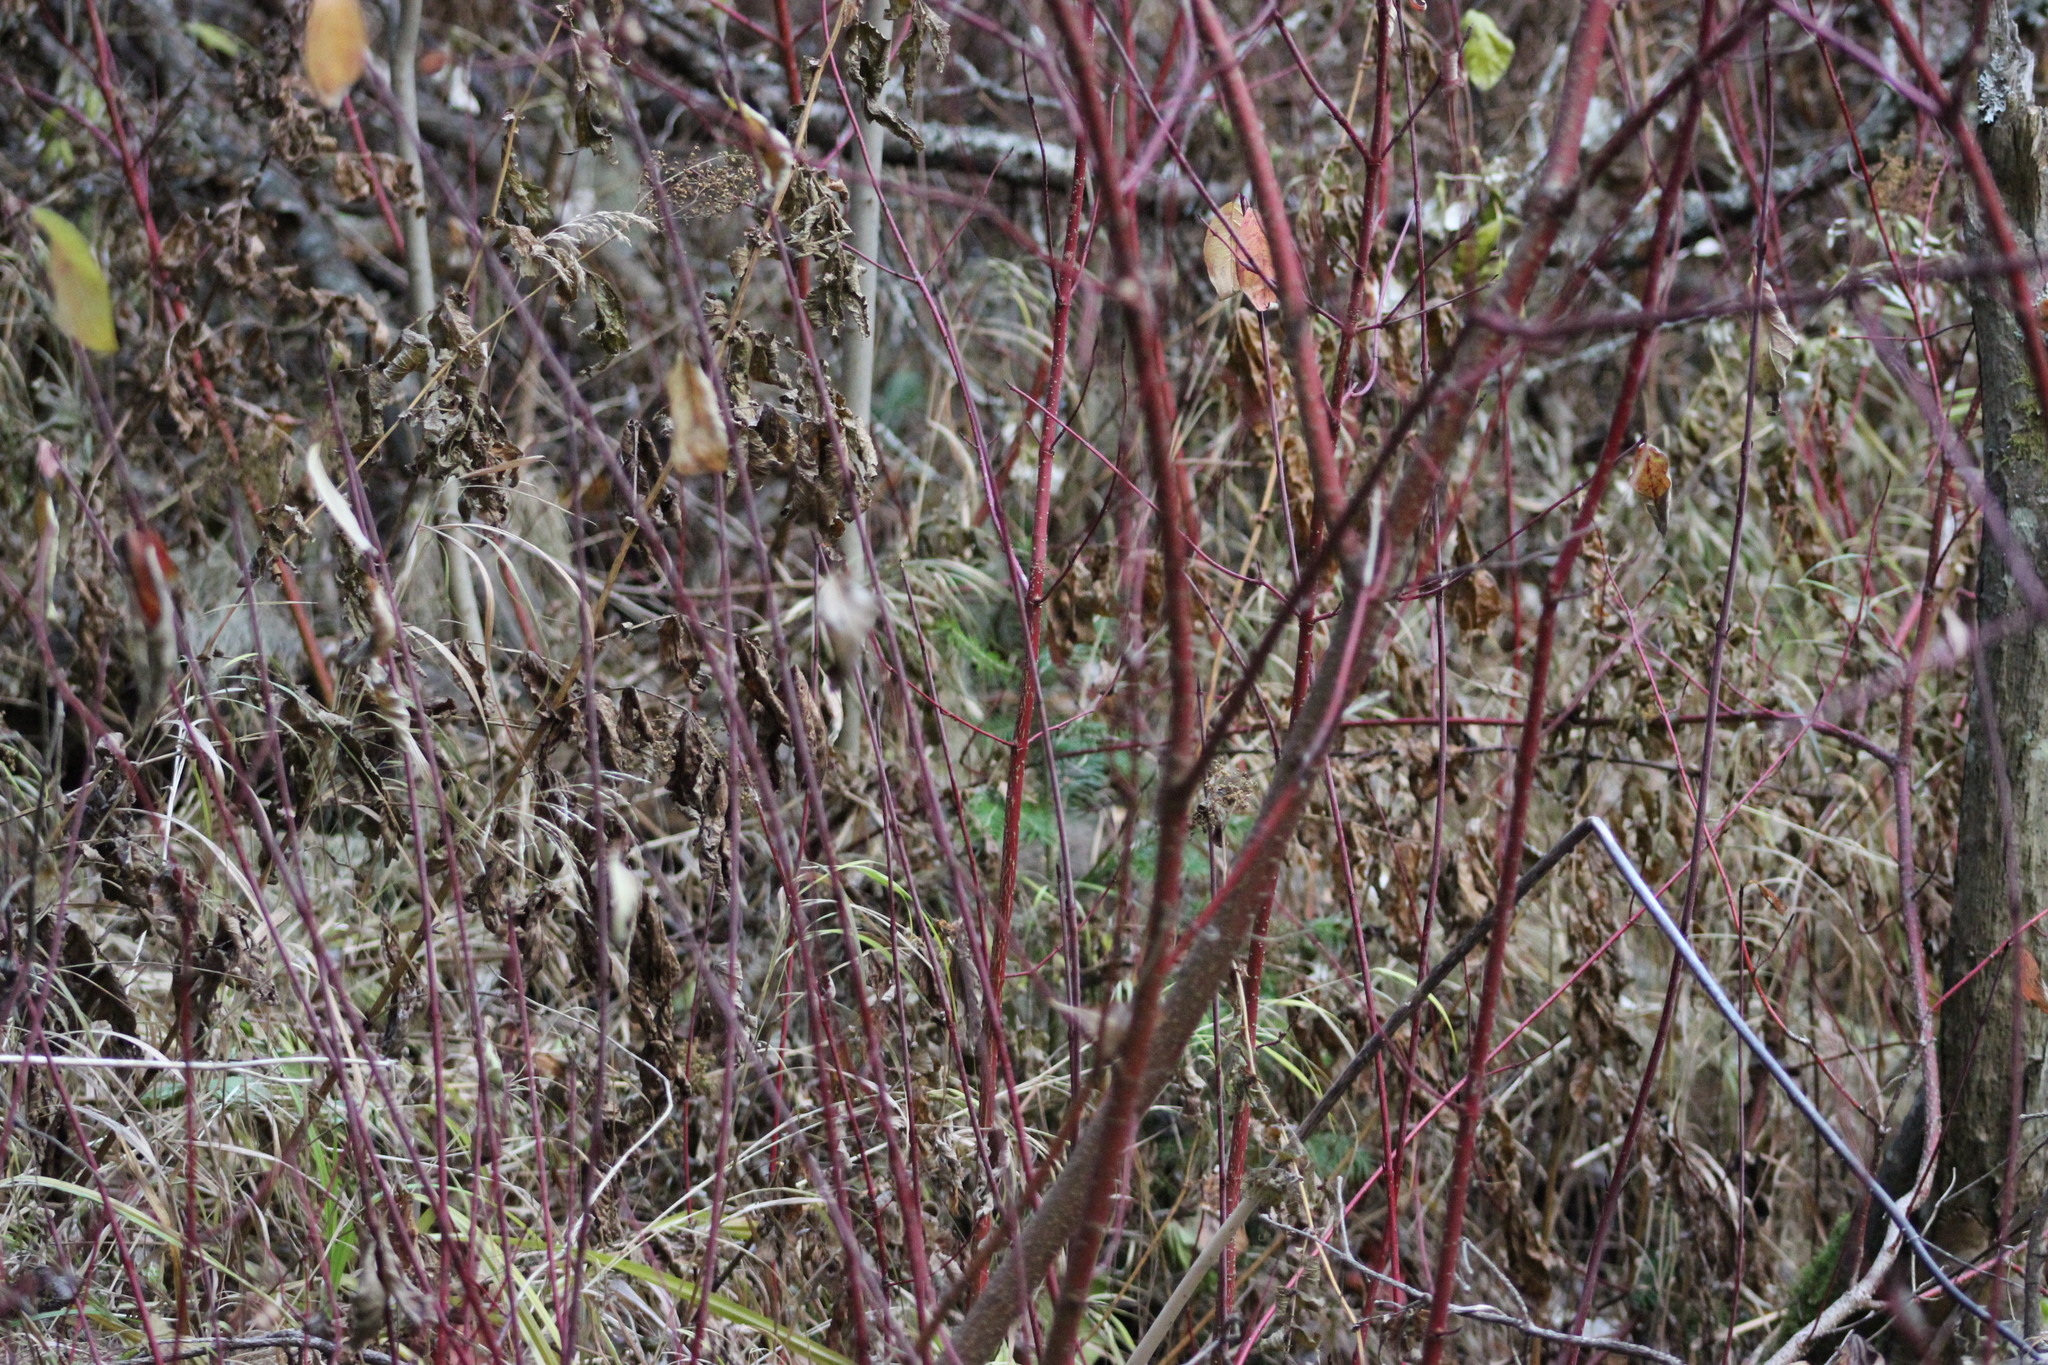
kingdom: Plantae
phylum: Tracheophyta
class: Magnoliopsida
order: Cornales
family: Cornaceae
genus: Cornus
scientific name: Cornus alba
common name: White dogwood
